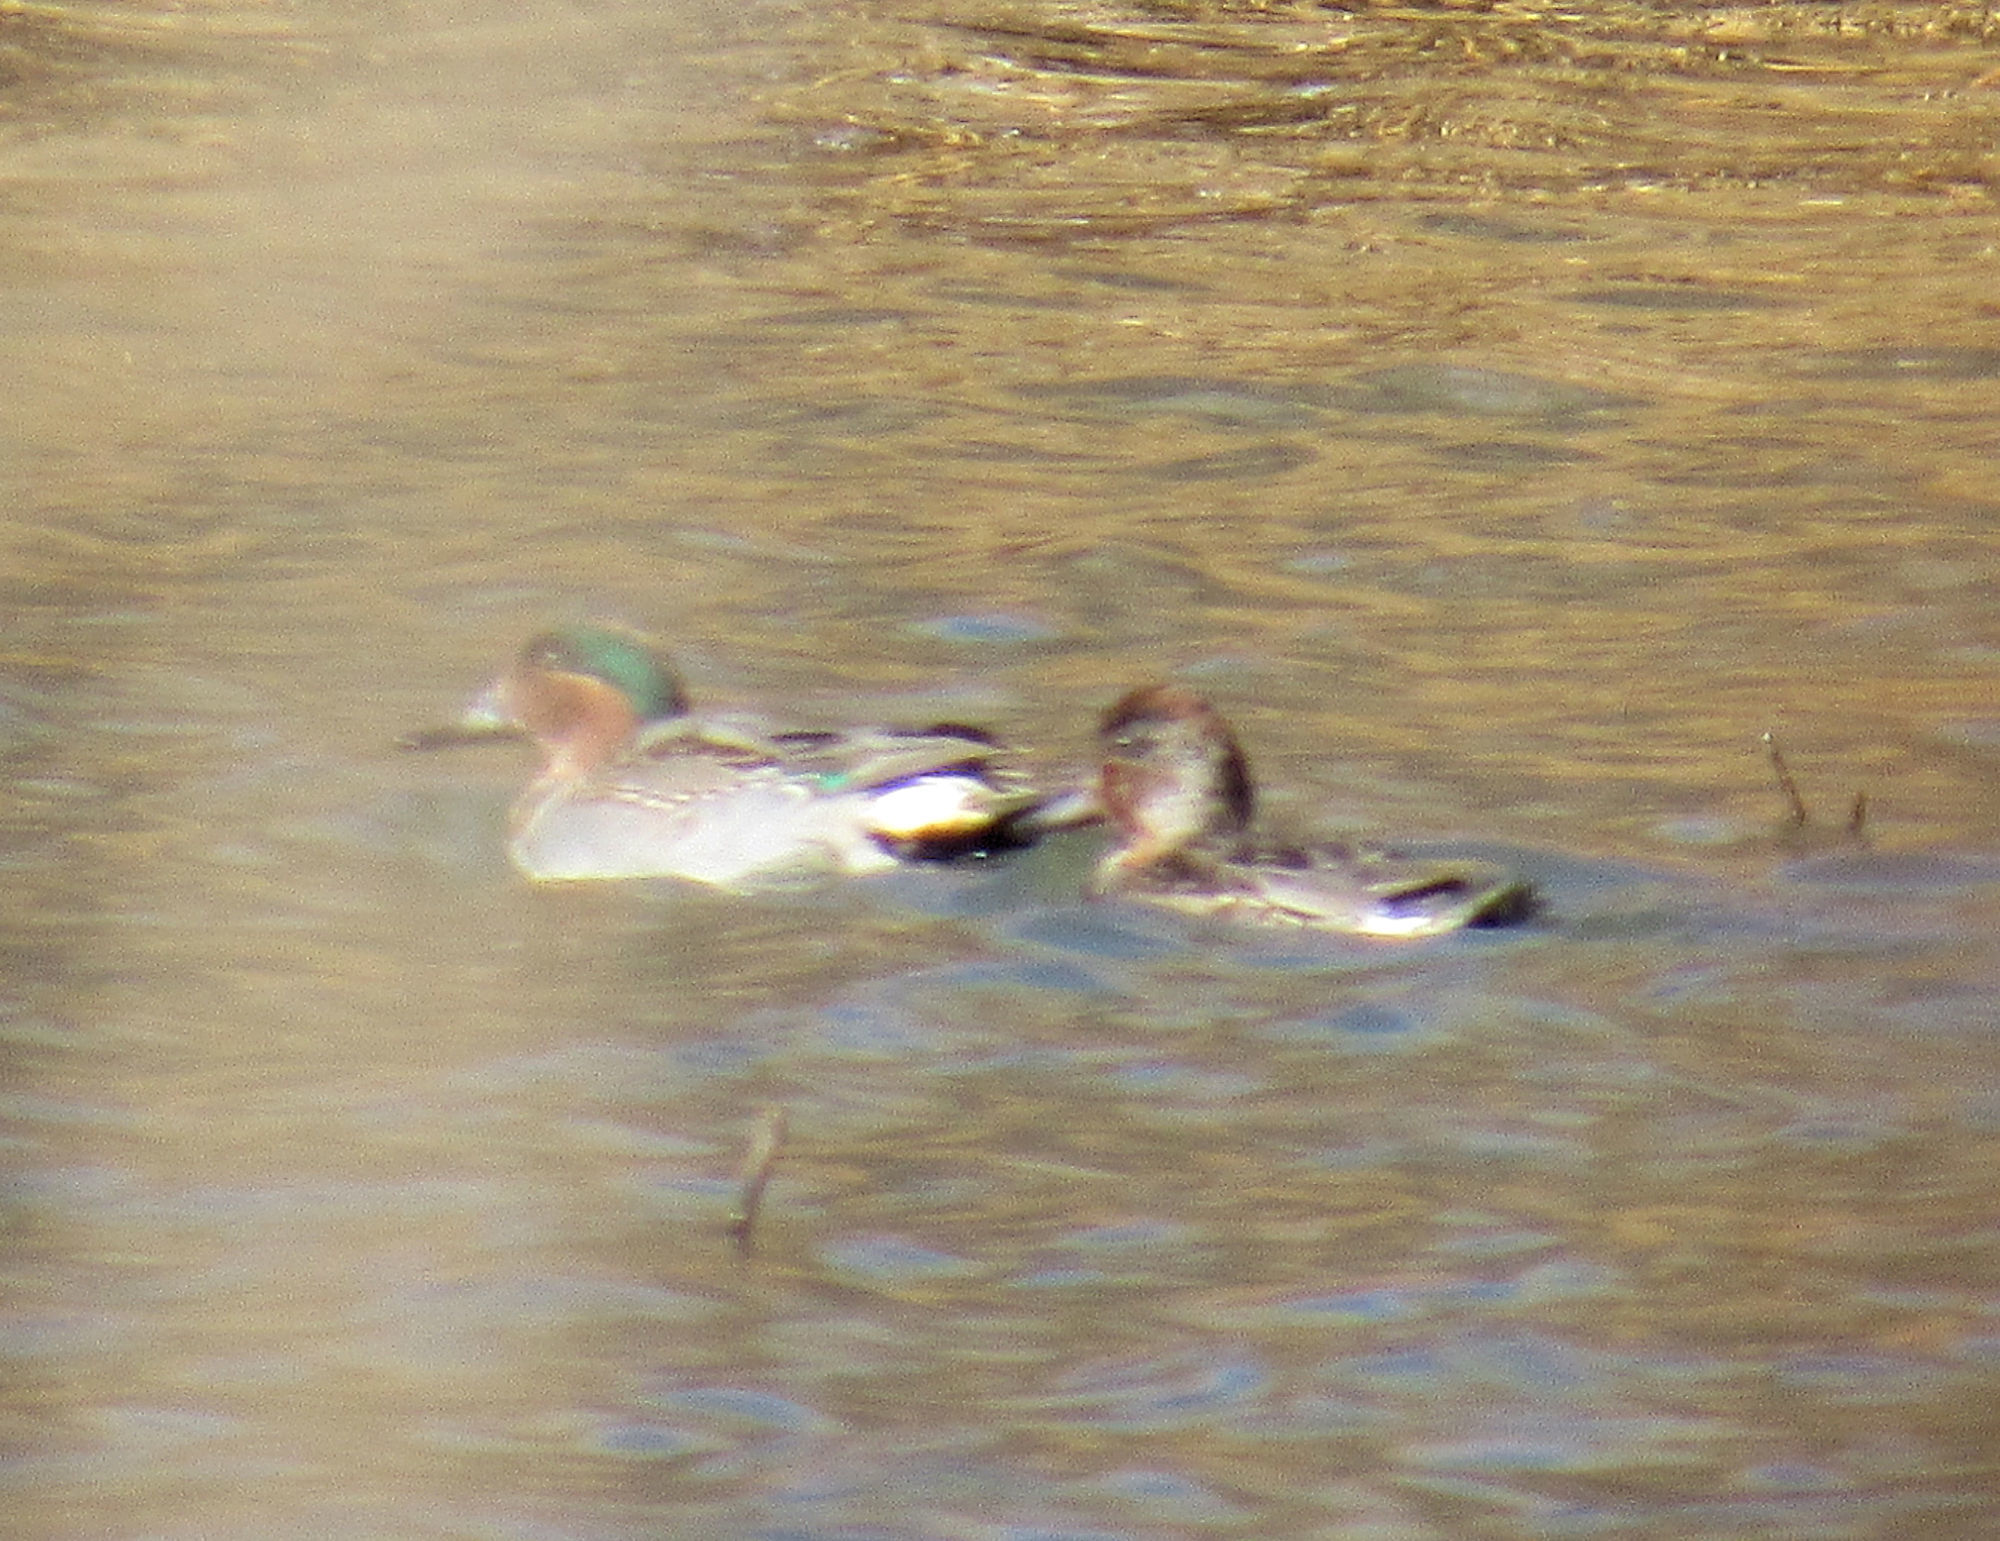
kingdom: Animalia
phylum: Chordata
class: Aves
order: Anseriformes
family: Anatidae
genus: Anas
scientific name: Anas crecca
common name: Eurasian teal
